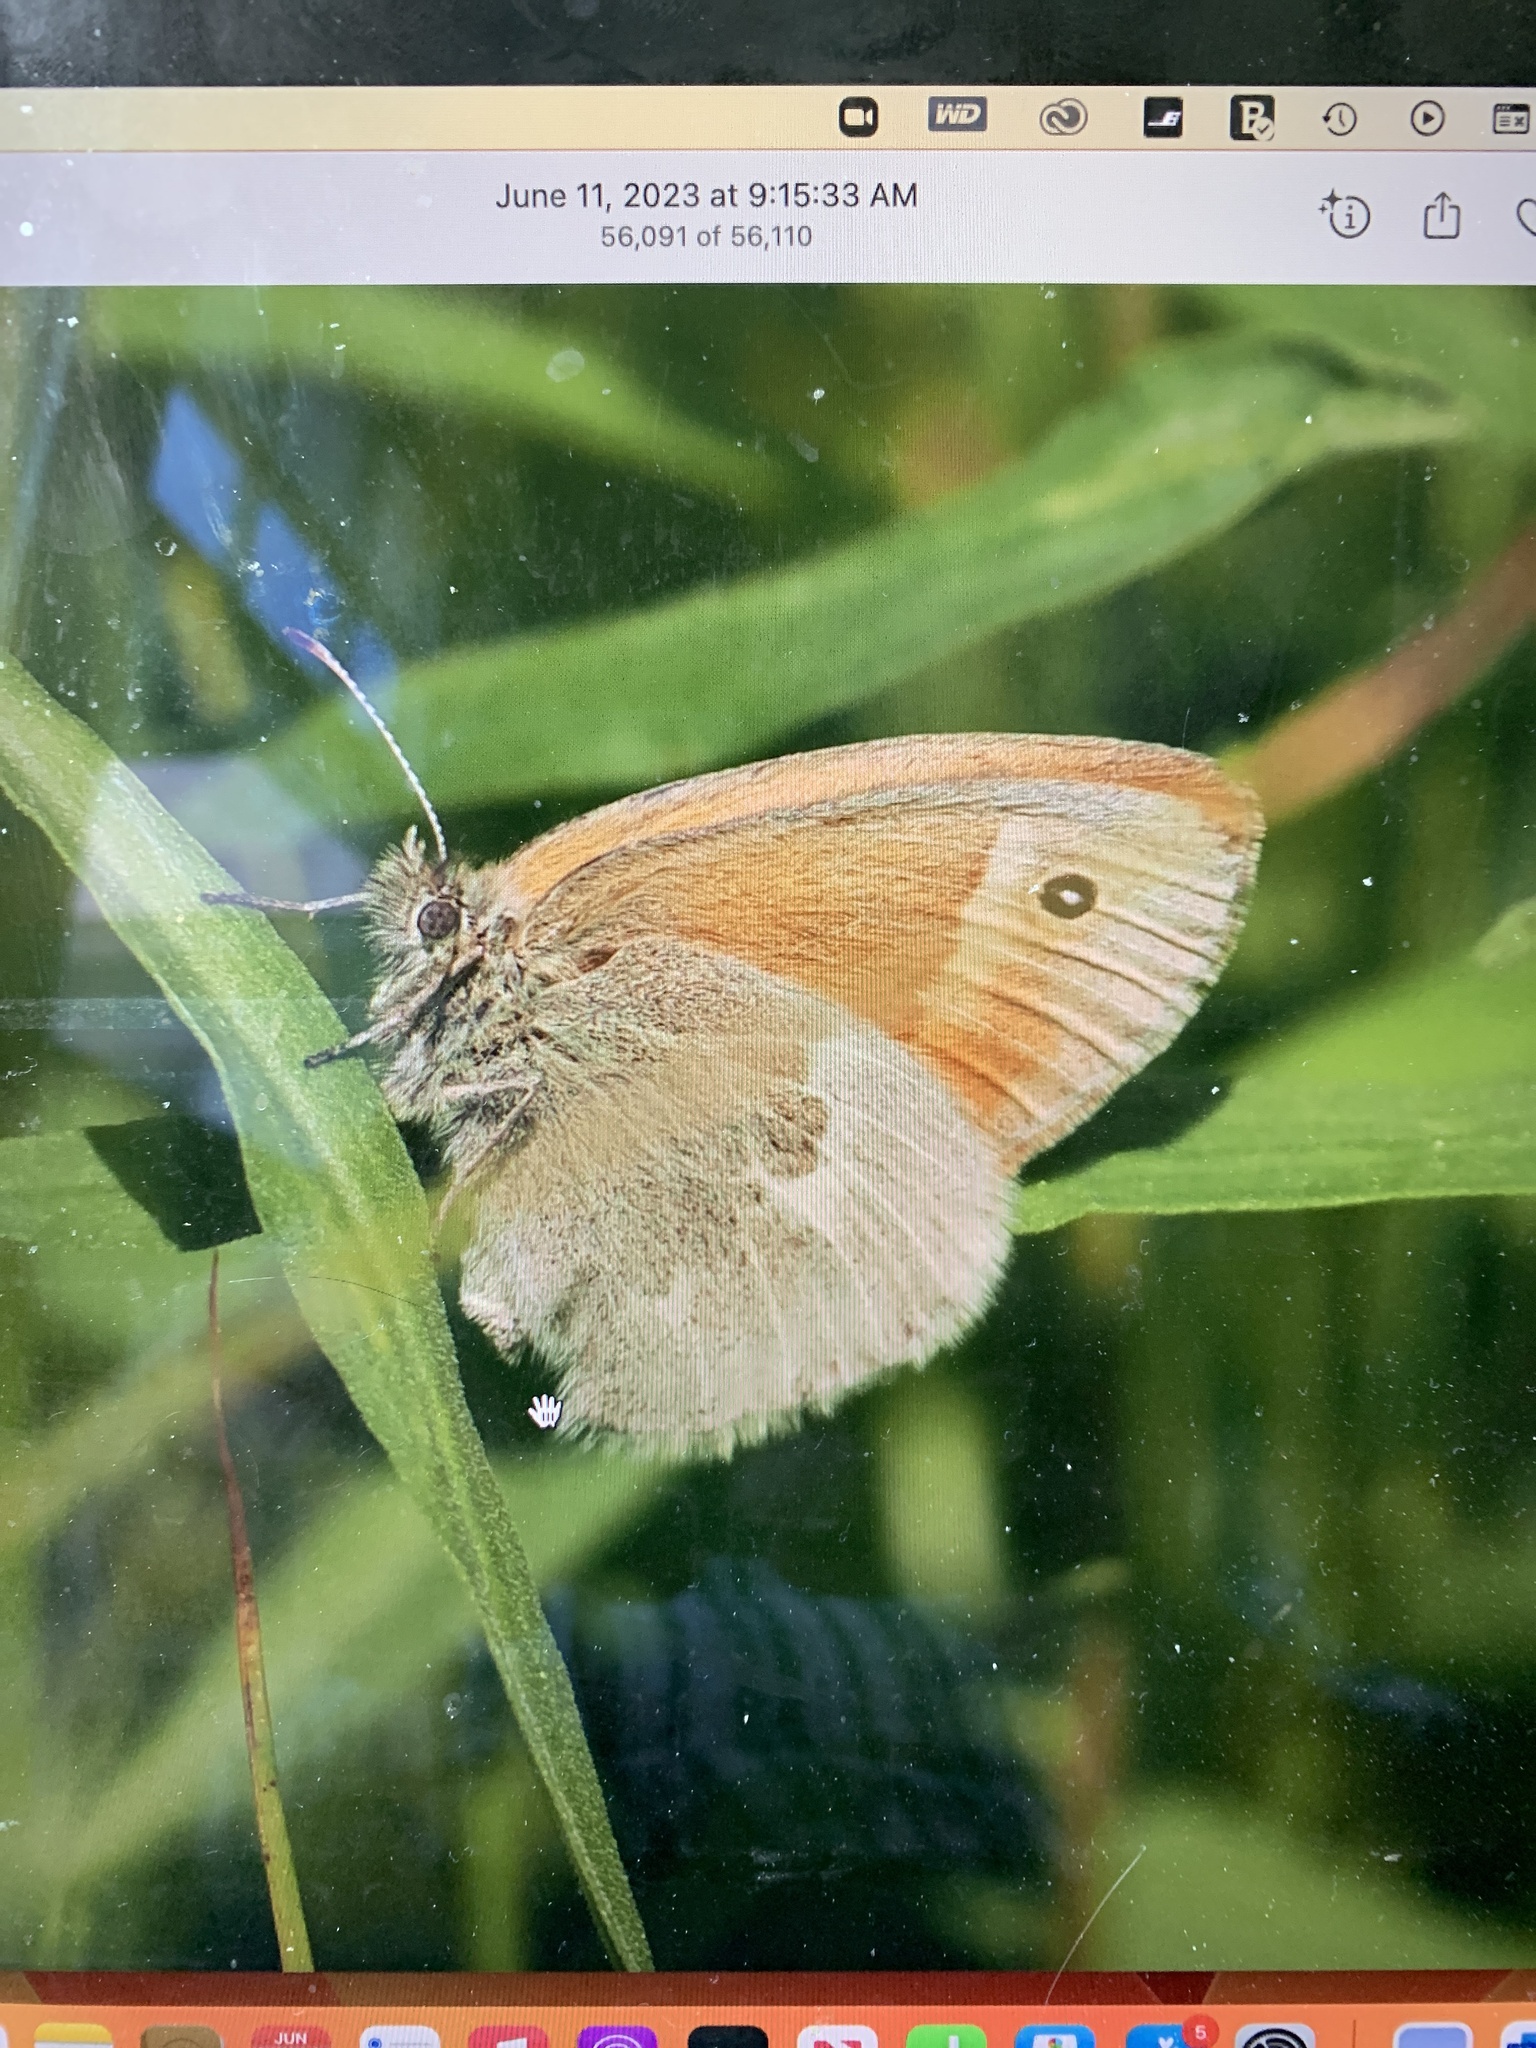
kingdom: Animalia
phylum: Arthropoda
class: Insecta
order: Lepidoptera
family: Nymphalidae
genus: Coenonympha
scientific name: Coenonympha california
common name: Common ringlet
